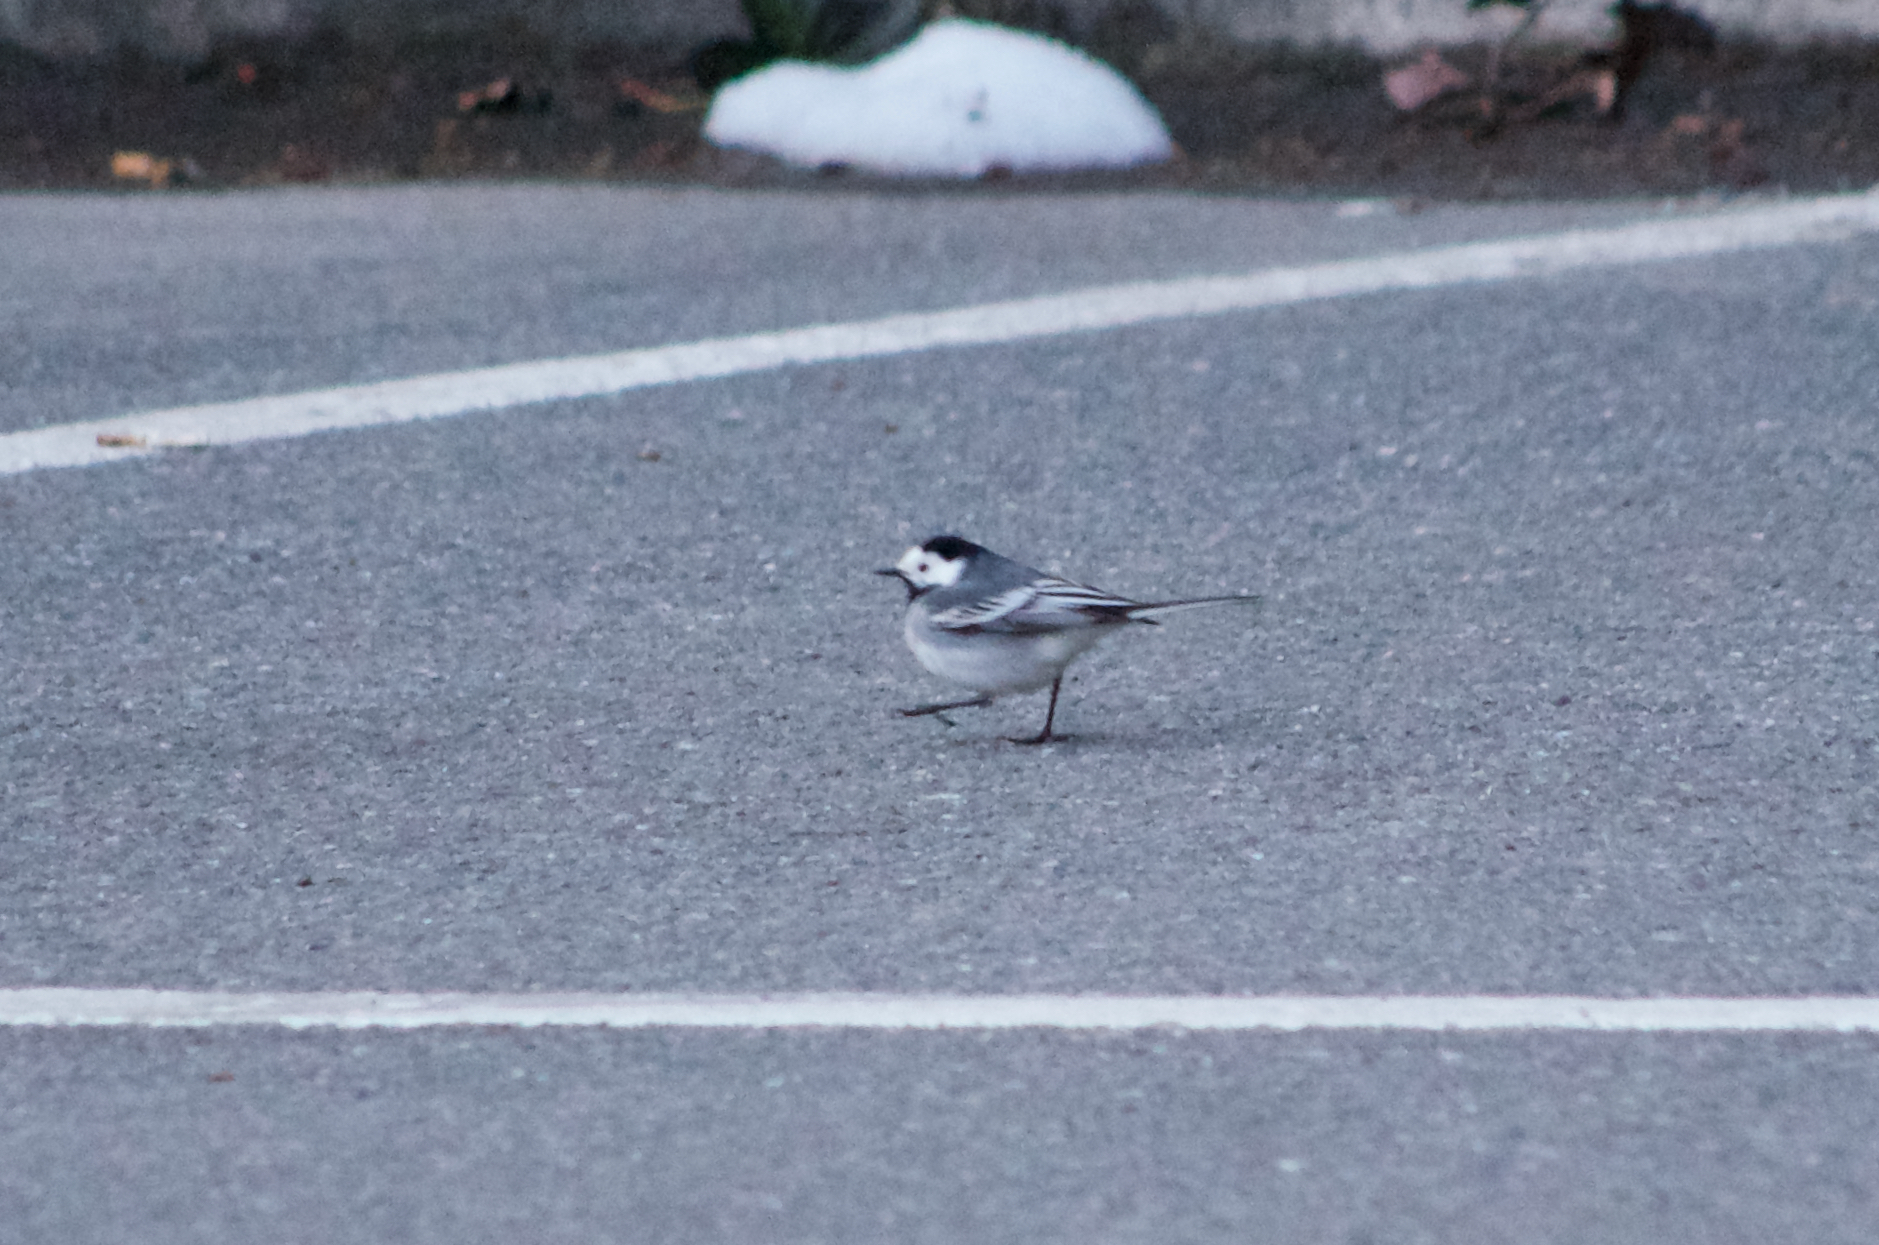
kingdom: Animalia
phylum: Chordata
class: Aves
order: Passeriformes
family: Motacillidae
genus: Motacilla
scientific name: Motacilla alba
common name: White wagtail
